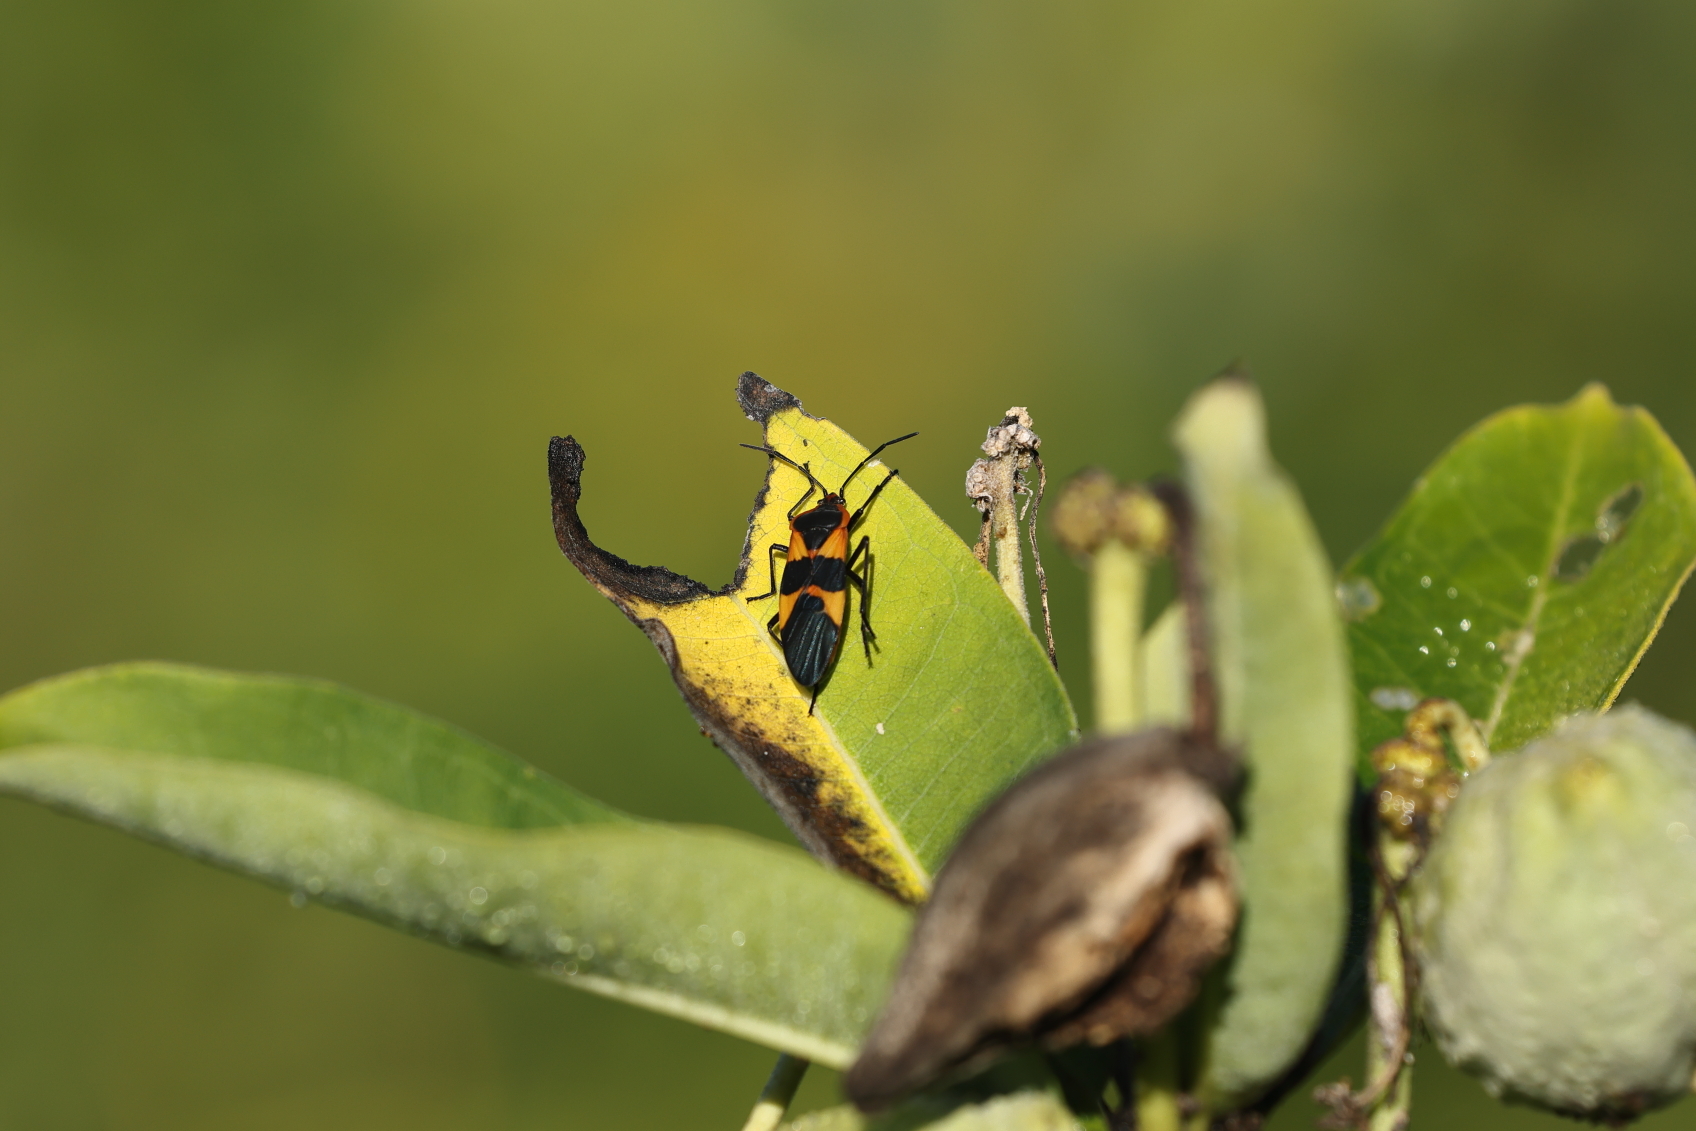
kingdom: Animalia
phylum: Arthropoda
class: Insecta
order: Hemiptera
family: Lygaeidae
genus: Oncopeltus
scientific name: Oncopeltus fasciatus
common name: Large milkweed bug
